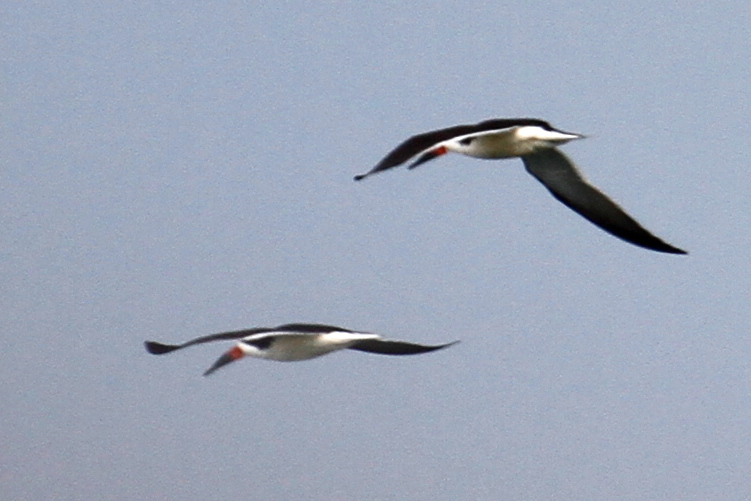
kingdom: Animalia
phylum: Chordata
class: Aves
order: Charadriiformes
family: Laridae
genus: Rynchops
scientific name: Rynchops niger
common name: Black skimmer
